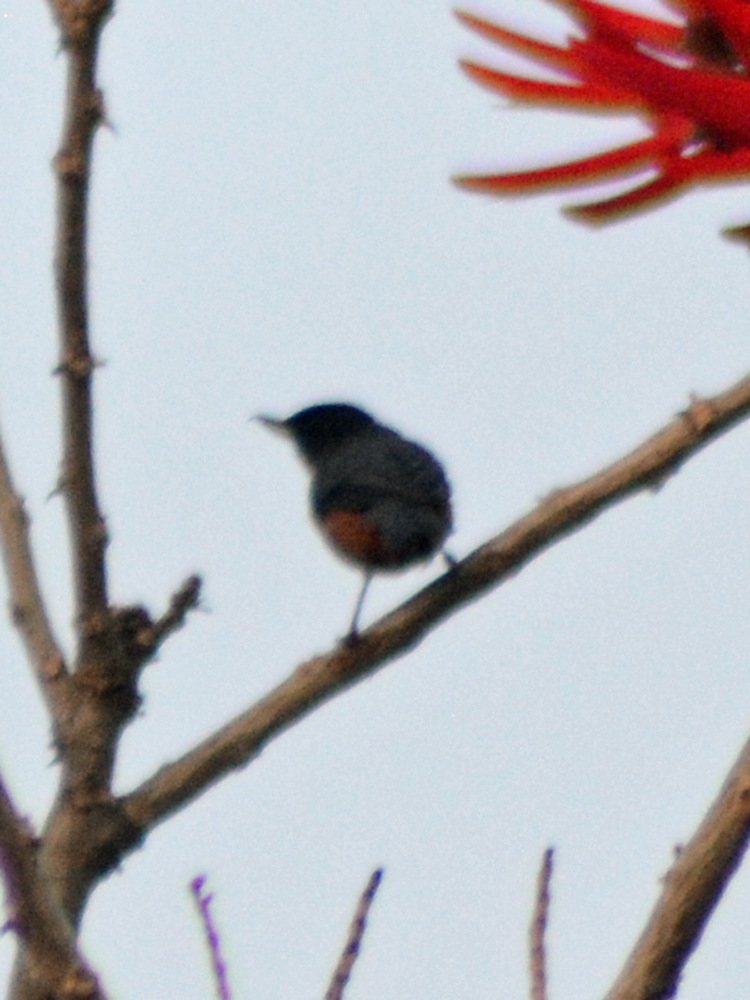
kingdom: Animalia
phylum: Chordata
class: Aves
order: Passeriformes
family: Thraupidae
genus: Diglossa
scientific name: Diglossa baritula
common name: Cinnamon-bellied flowerpiercer
